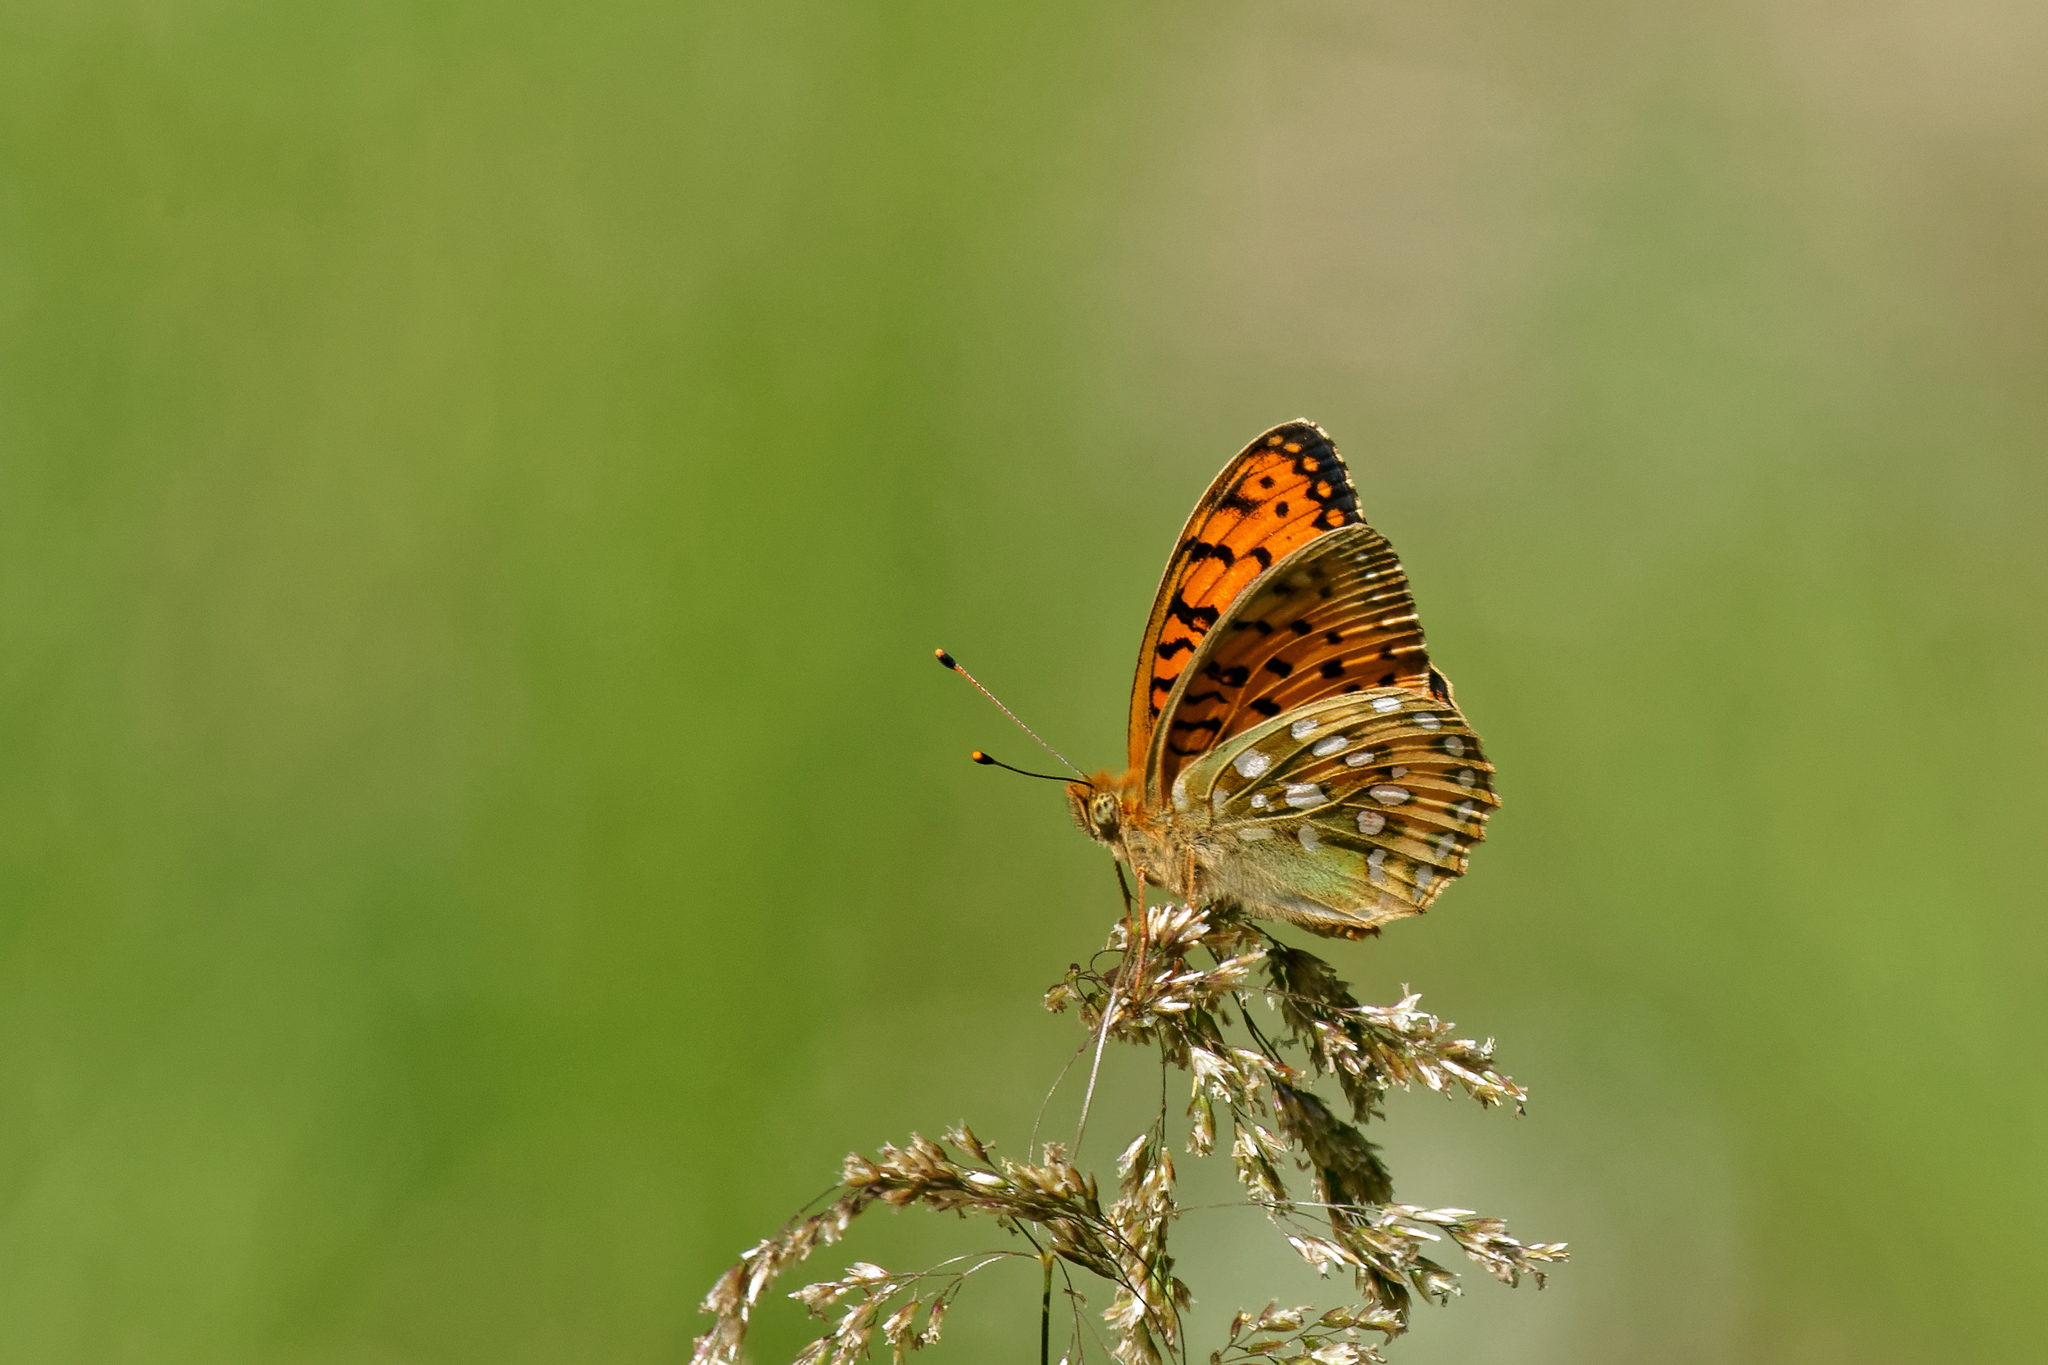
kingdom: Animalia
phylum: Arthropoda
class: Insecta
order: Lepidoptera
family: Nymphalidae
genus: Speyeria
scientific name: Speyeria aglaja
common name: Dark green fritillary
